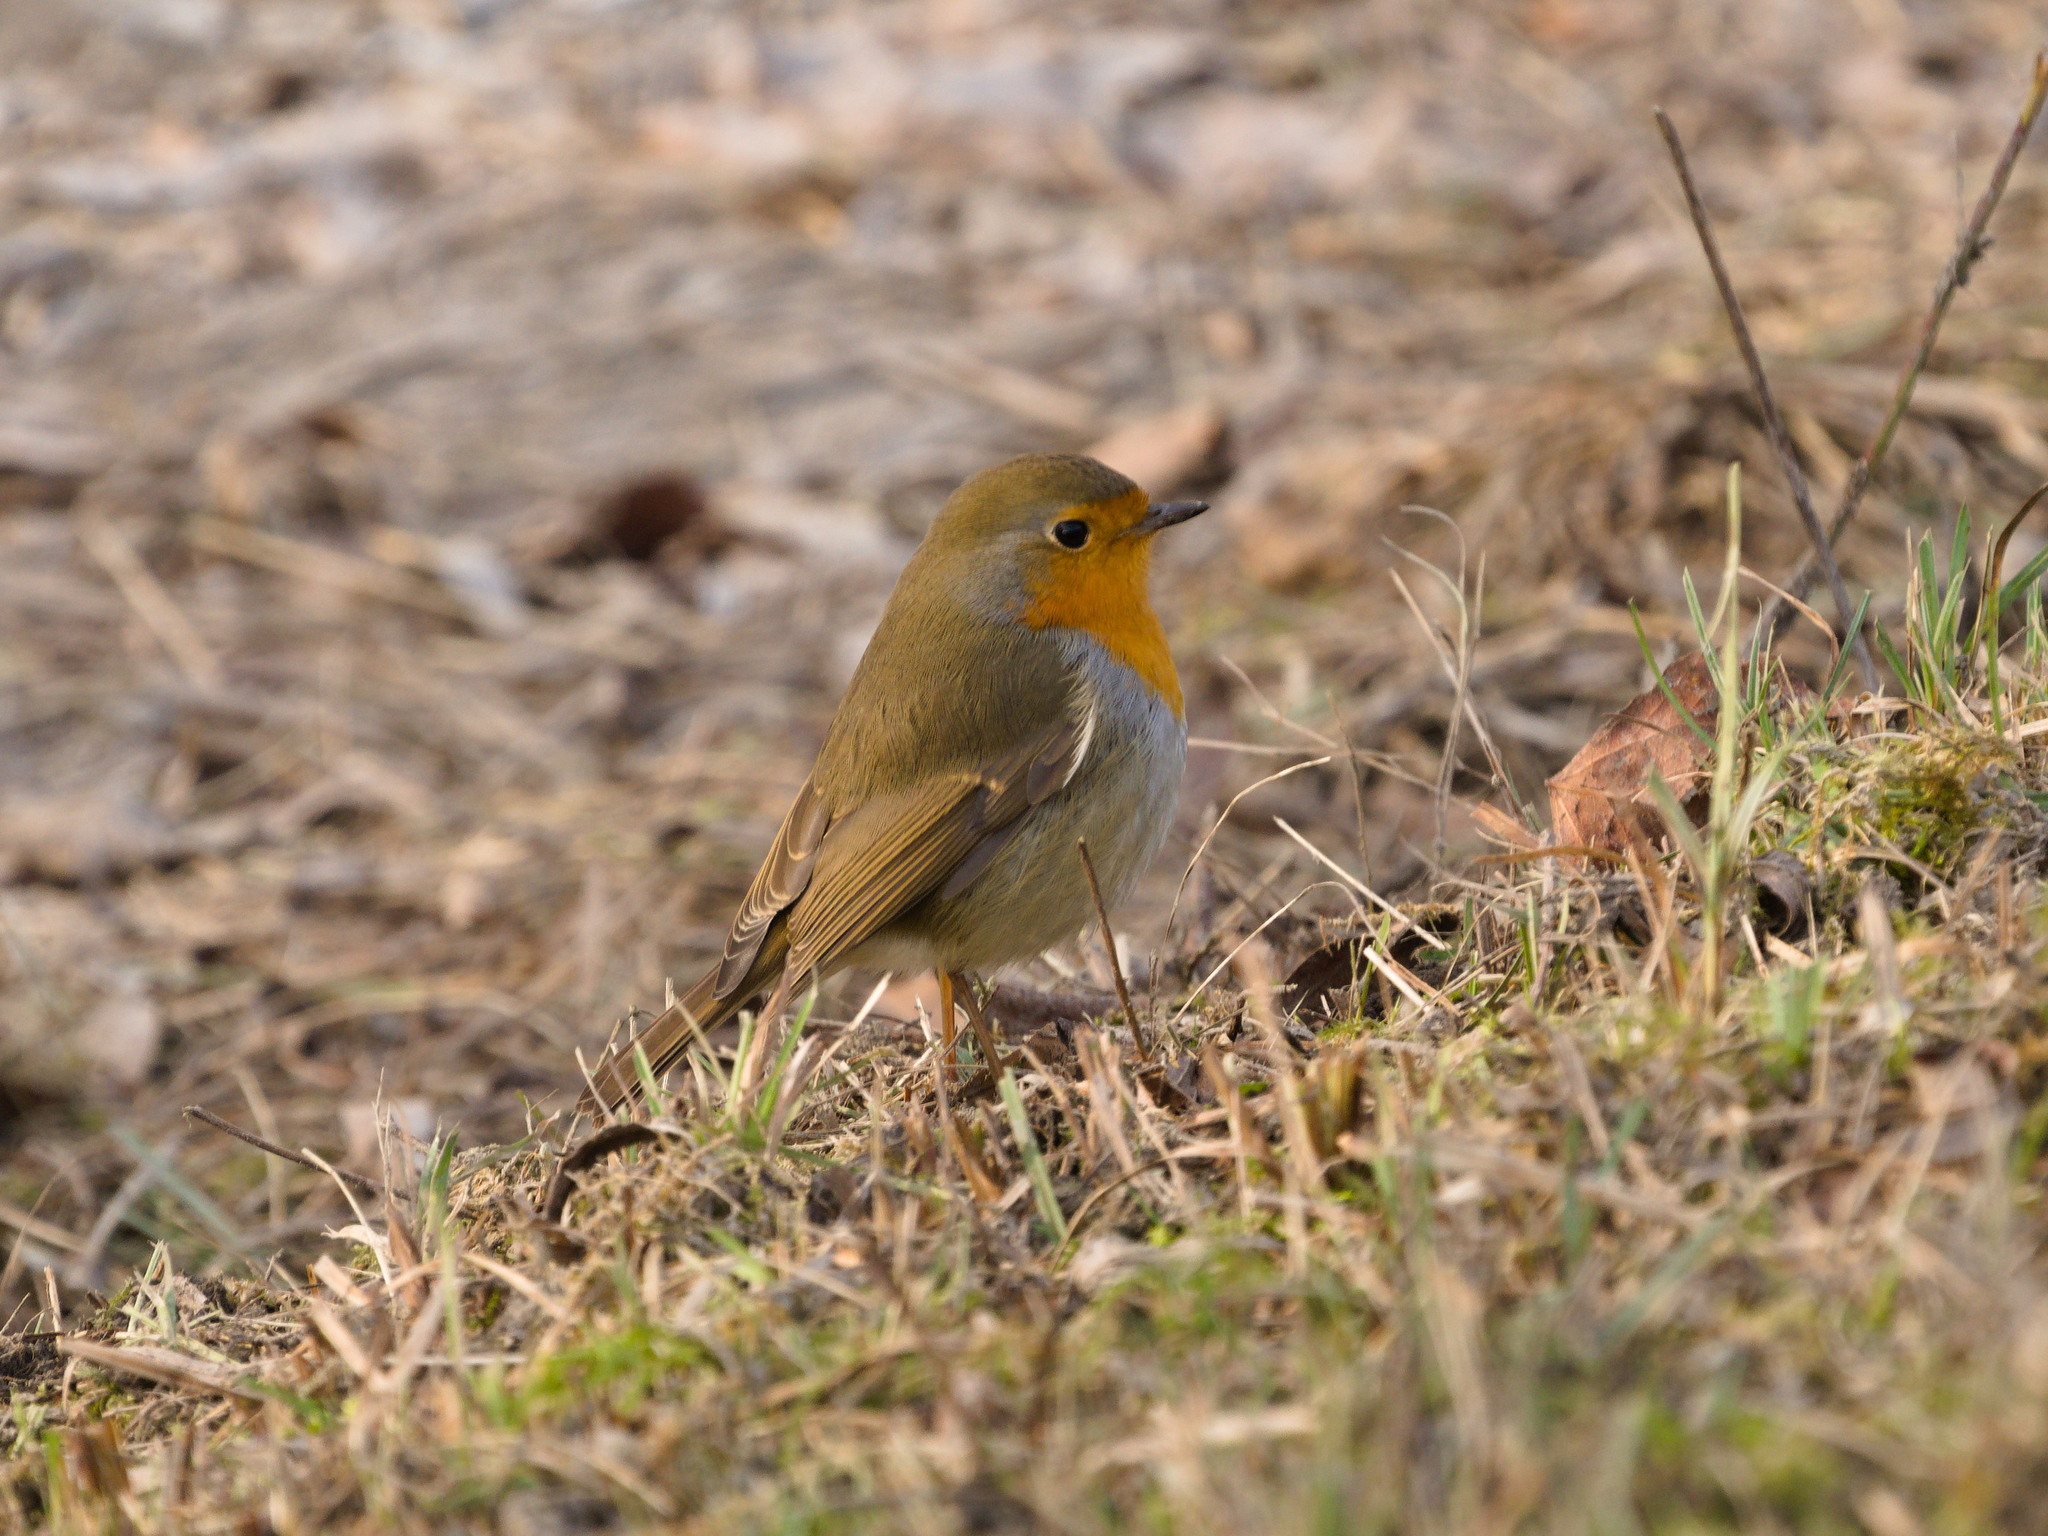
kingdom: Animalia
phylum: Chordata
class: Aves
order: Passeriformes
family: Muscicapidae
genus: Erithacus
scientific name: Erithacus rubecula
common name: European robin
